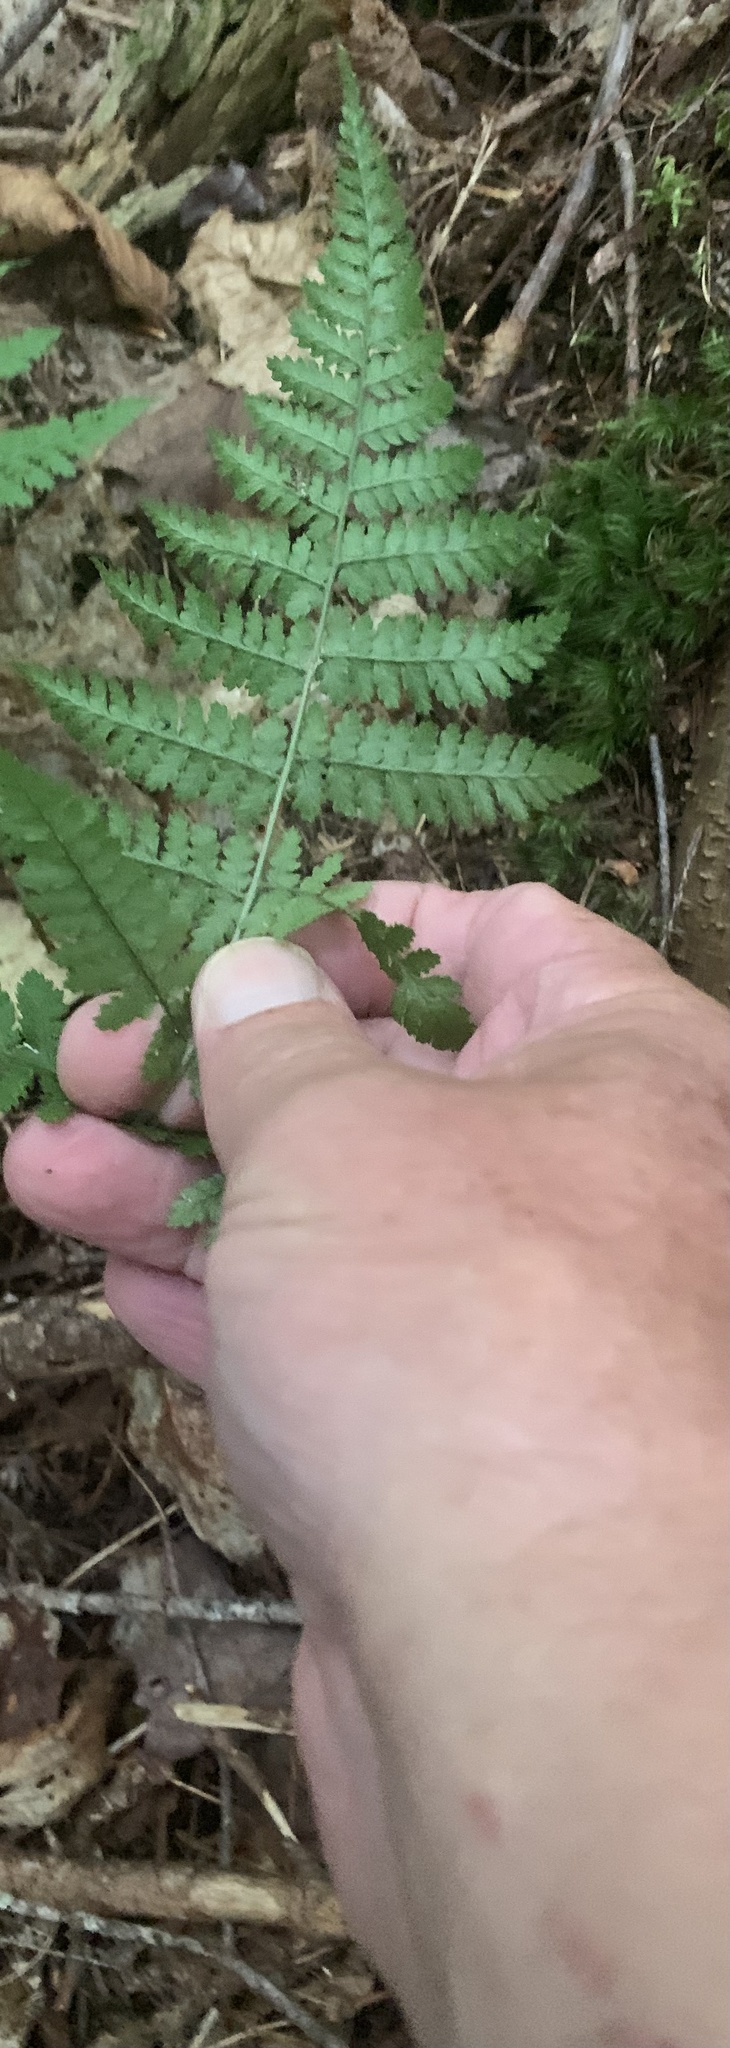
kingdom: Plantae
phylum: Tracheophyta
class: Polypodiopsida
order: Polypodiales
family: Dryopteridaceae
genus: Dryopteris
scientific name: Dryopteris intermedia
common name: Evergreen wood fern
